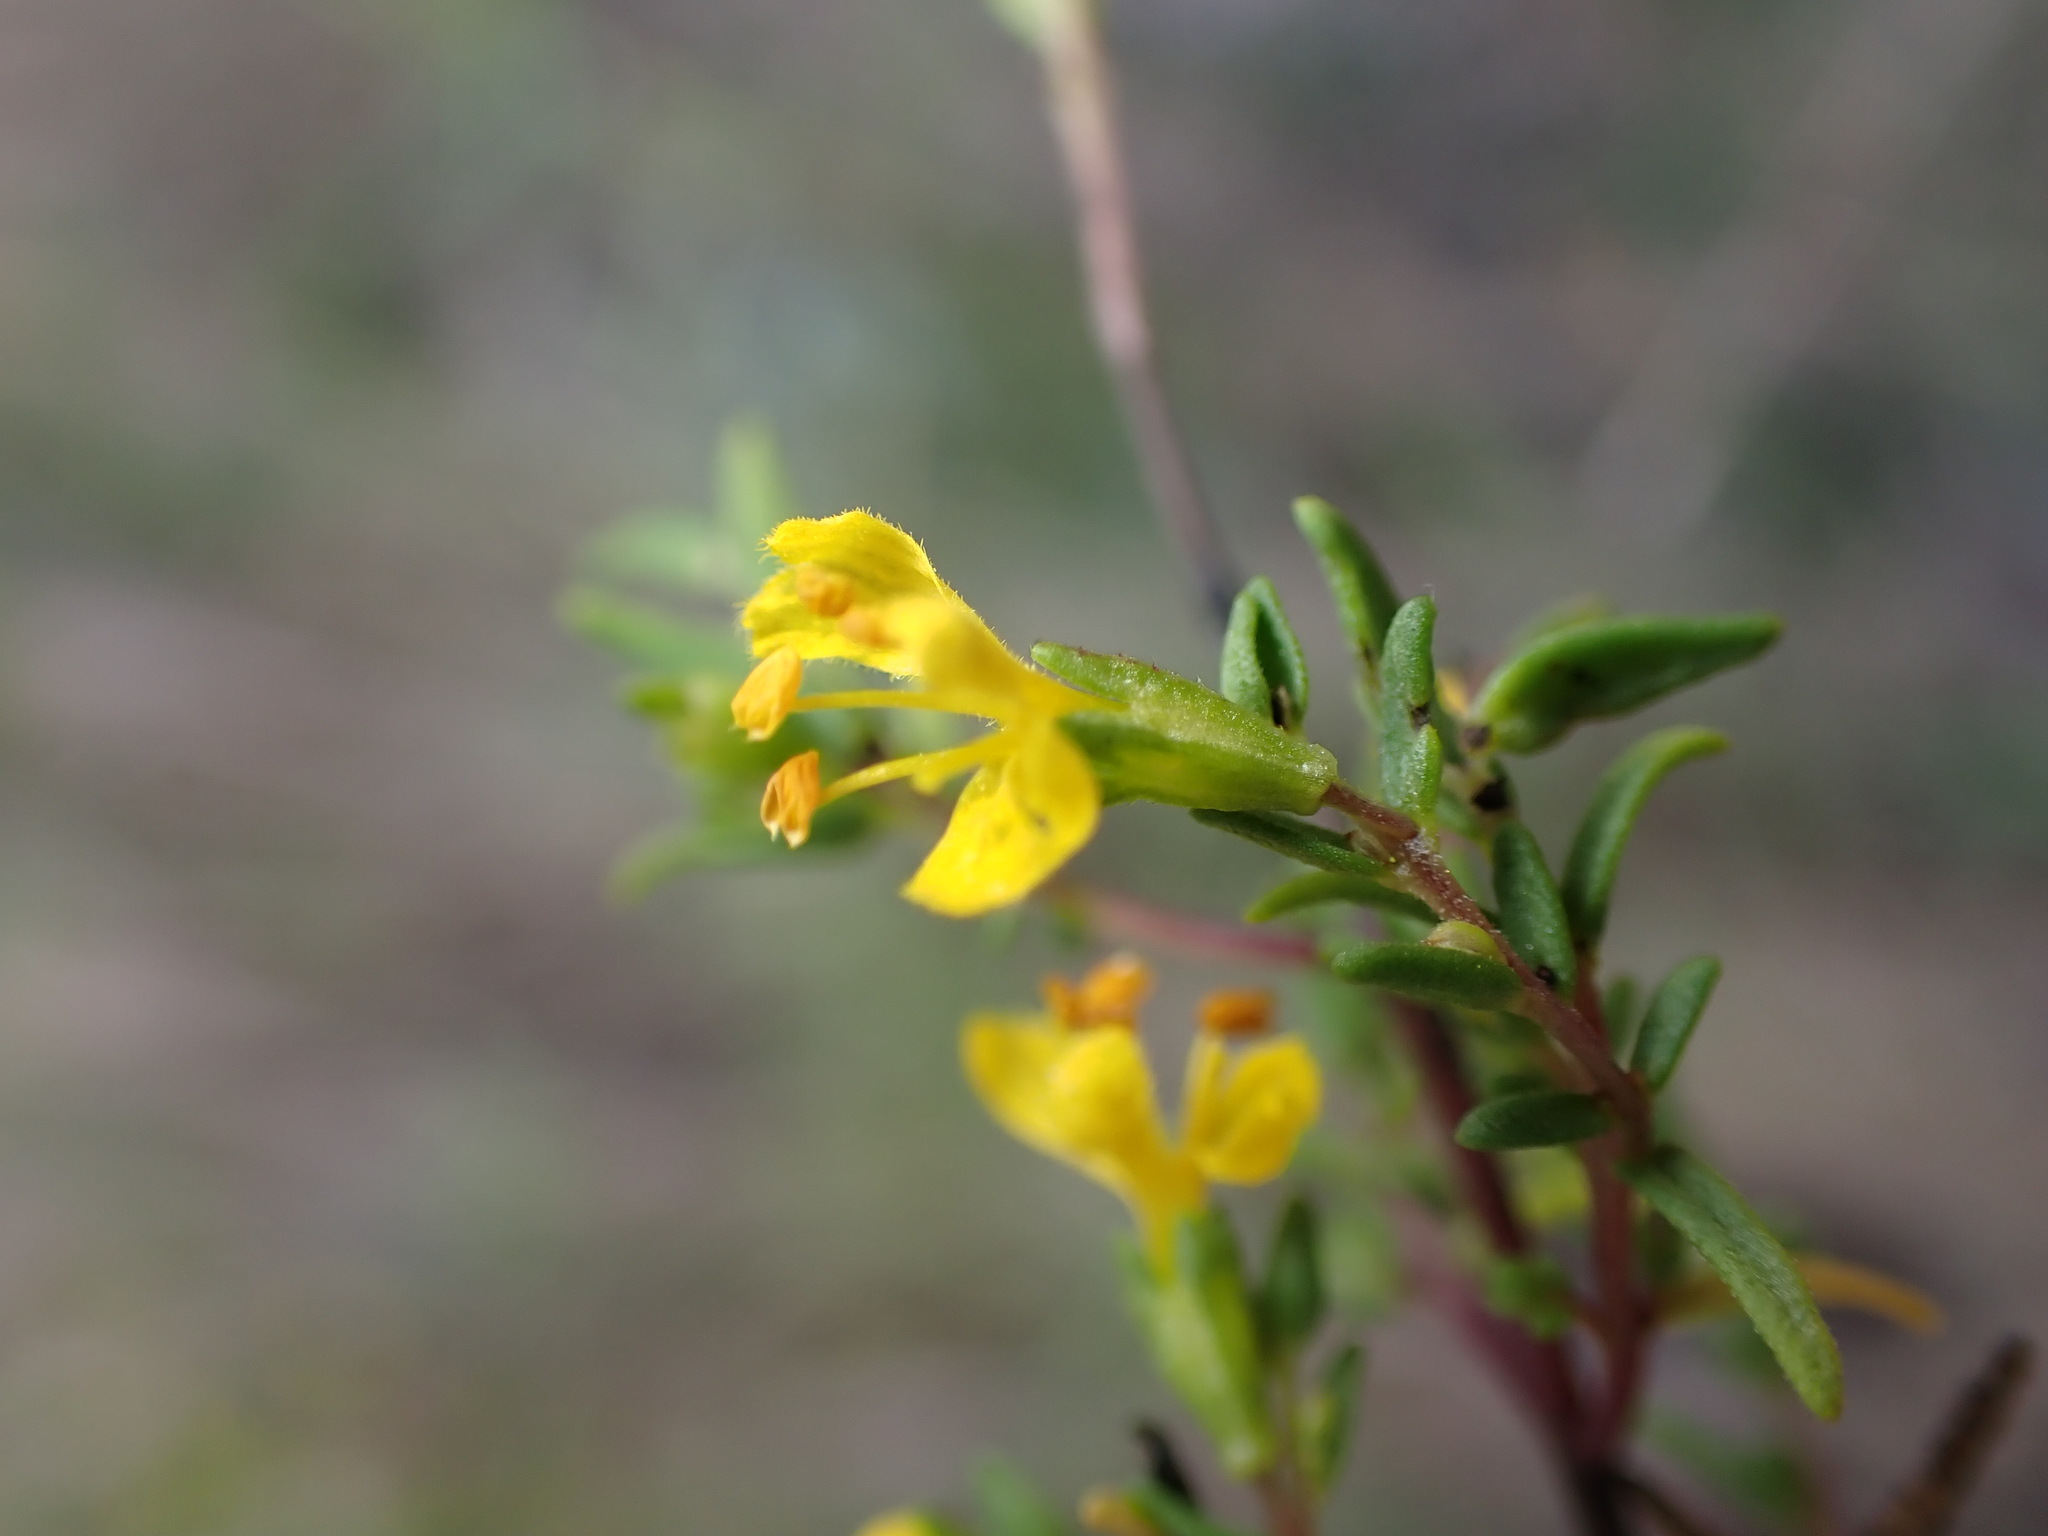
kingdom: Plantae
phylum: Tracheophyta
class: Magnoliopsida
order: Lamiales
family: Orobanchaceae
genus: Odontites
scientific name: Odontites luteus
